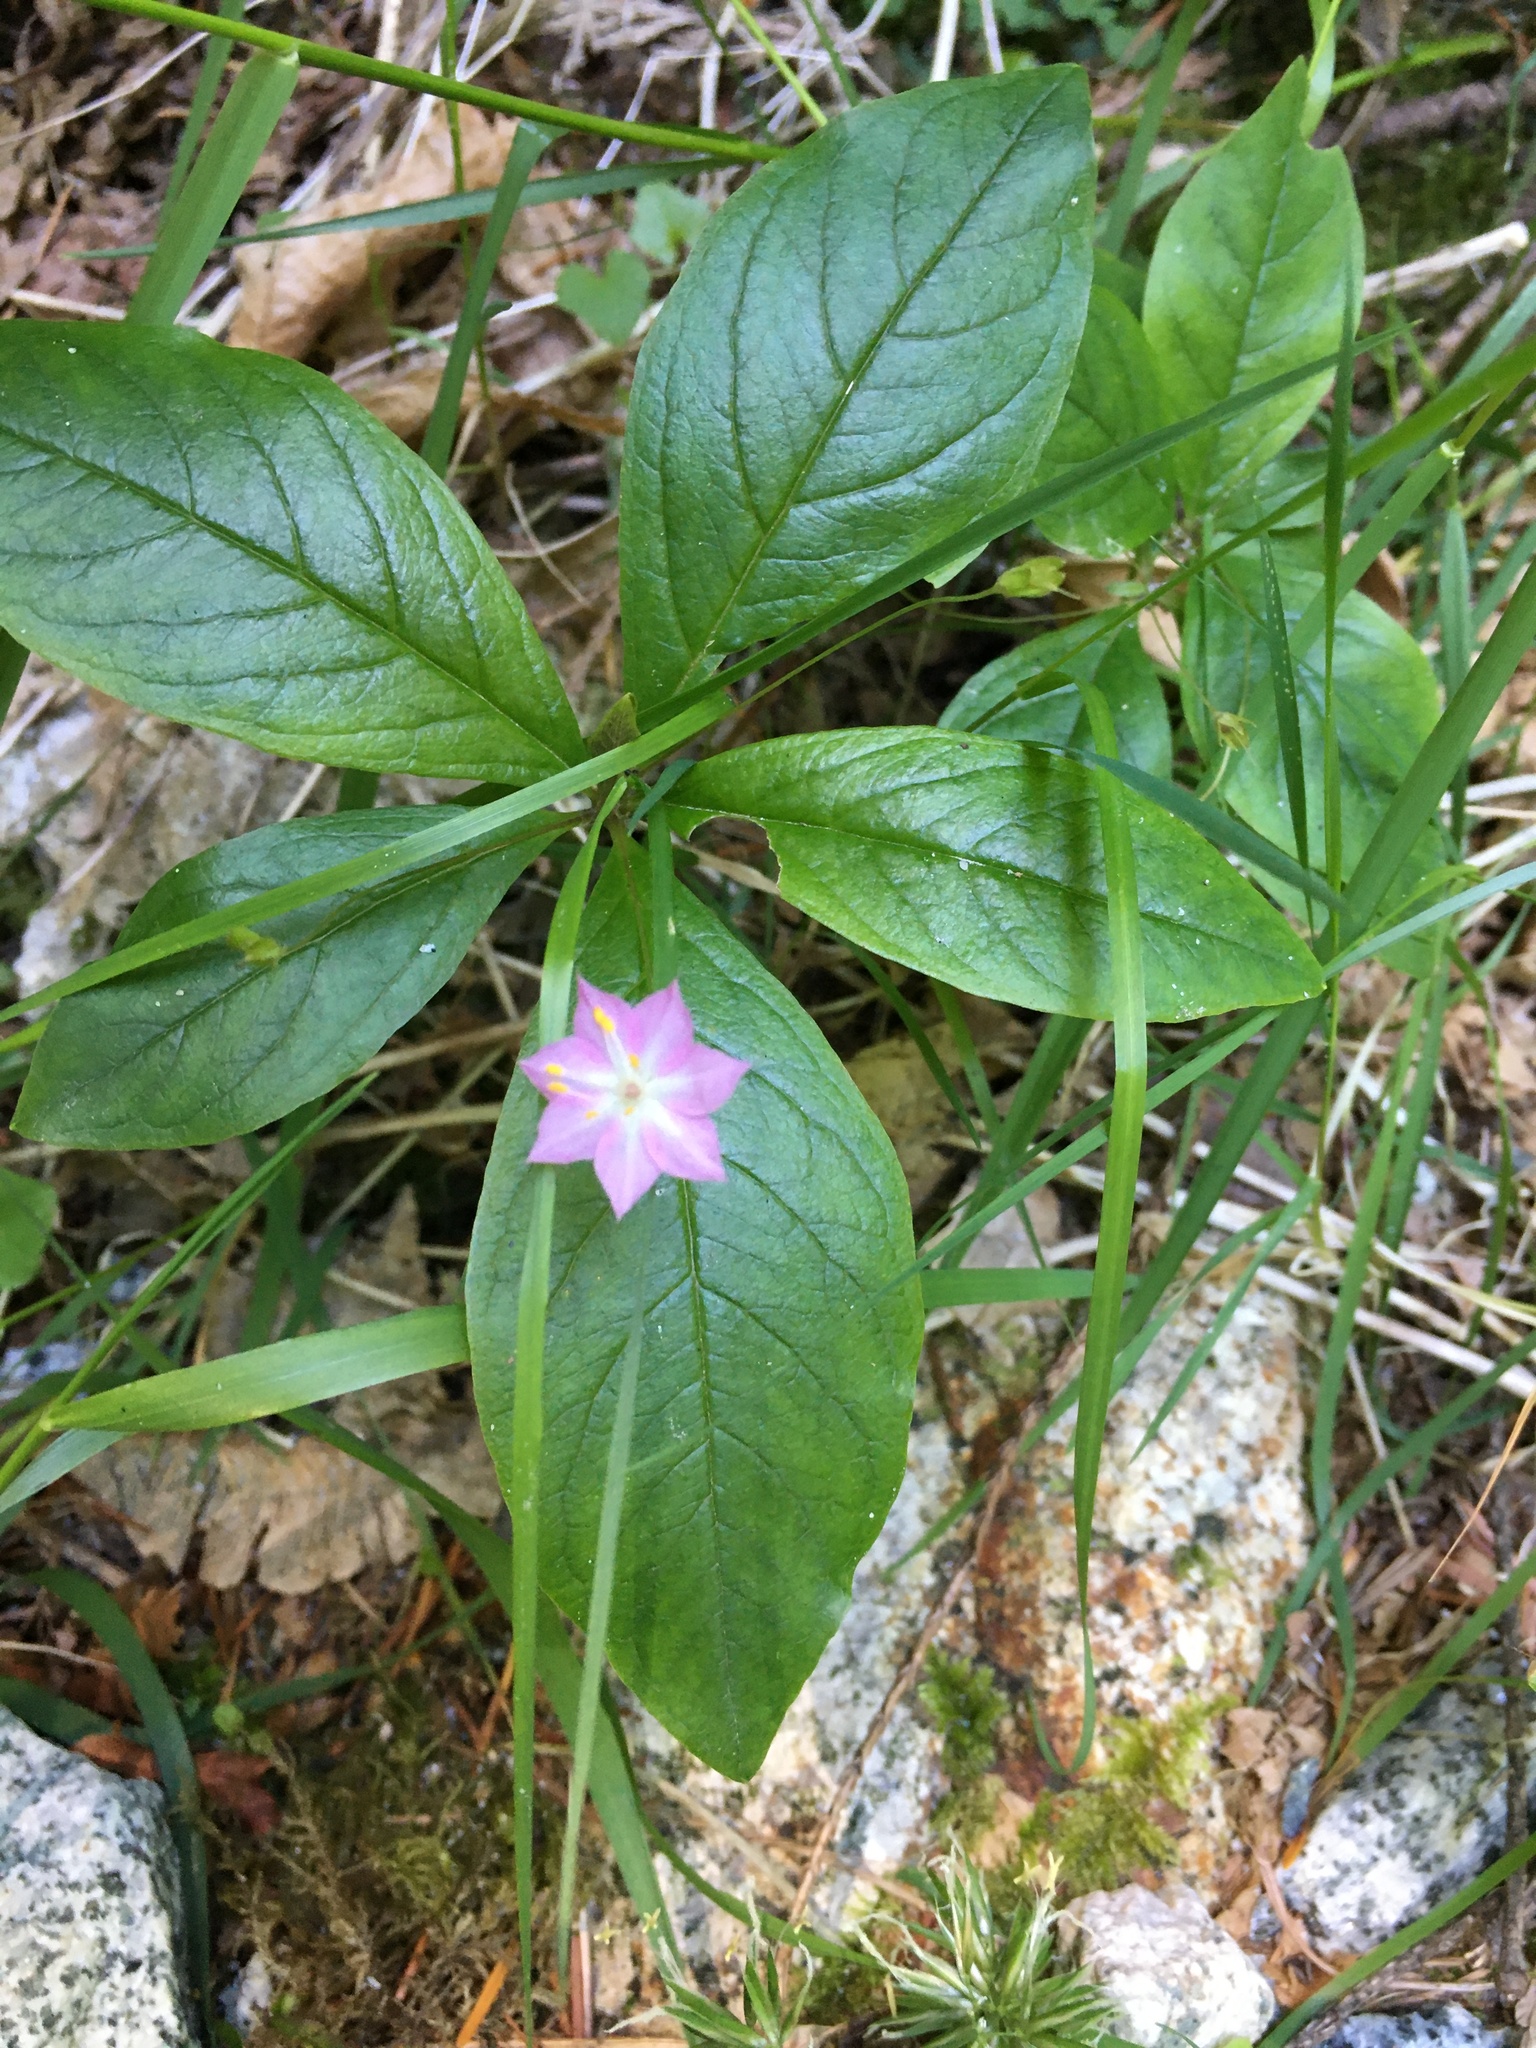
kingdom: Plantae
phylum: Tracheophyta
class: Magnoliopsida
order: Ericales
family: Primulaceae
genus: Lysimachia
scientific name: Lysimachia latifolia
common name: Pacific starflower
